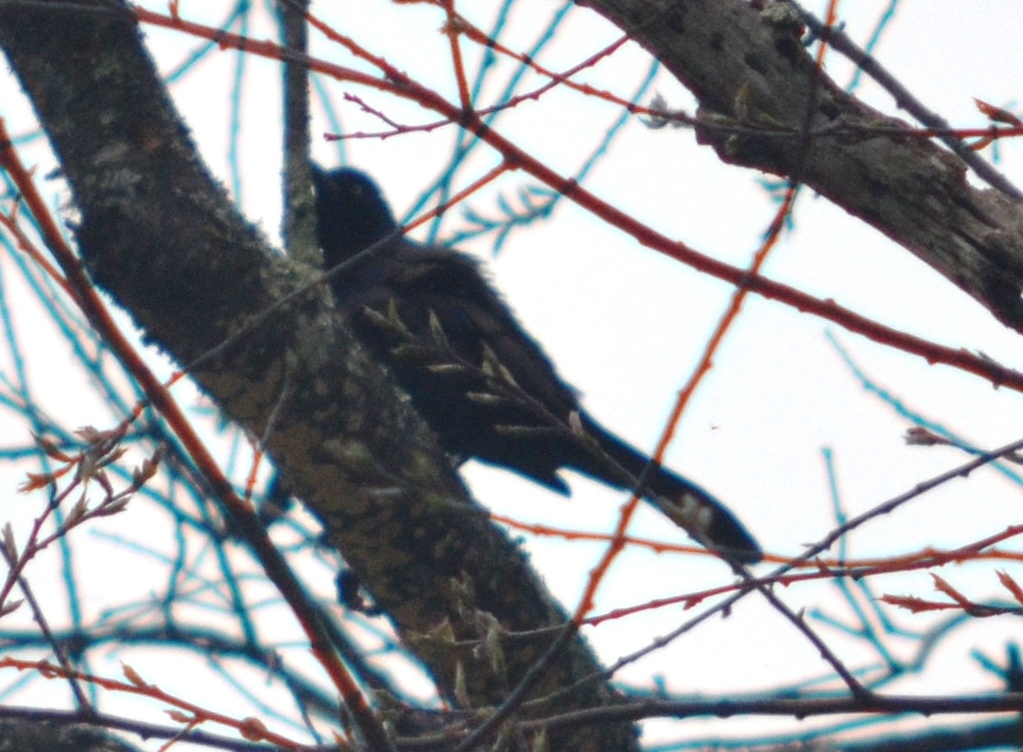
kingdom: Animalia
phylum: Chordata
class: Aves
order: Passeriformes
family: Icteridae
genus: Quiscalus
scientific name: Quiscalus quiscula
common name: Common grackle
